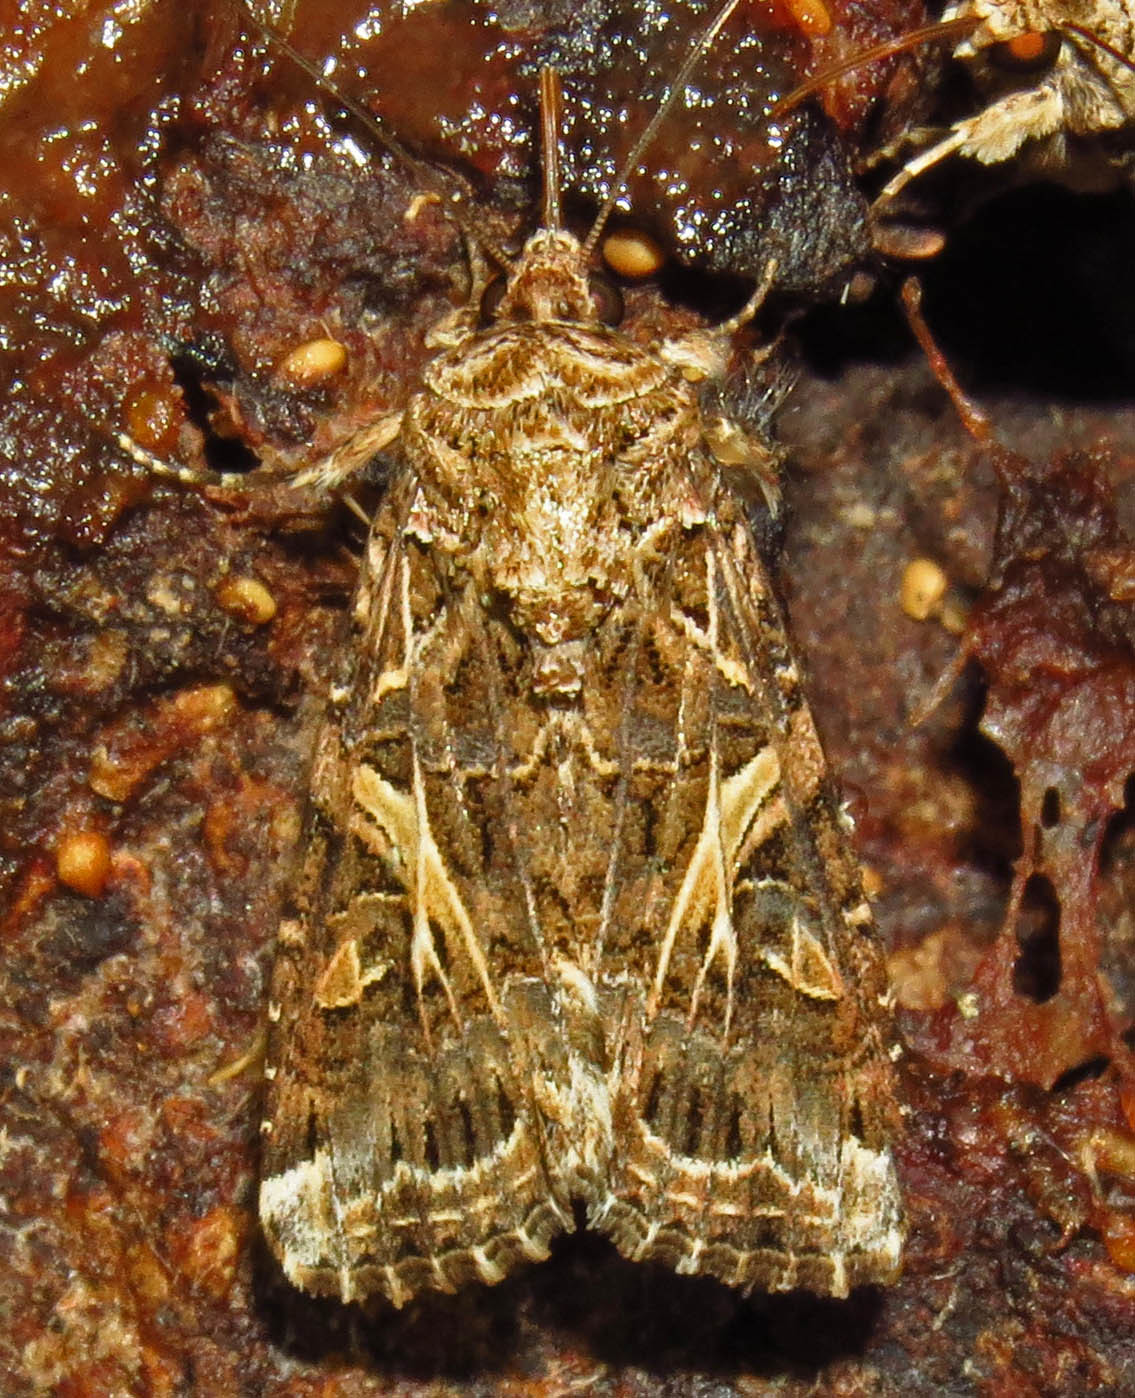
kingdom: Animalia
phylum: Arthropoda
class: Insecta
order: Lepidoptera
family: Noctuidae
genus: Spodoptera
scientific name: Spodoptera ornithogalli
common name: Yellow-striped armyworm
